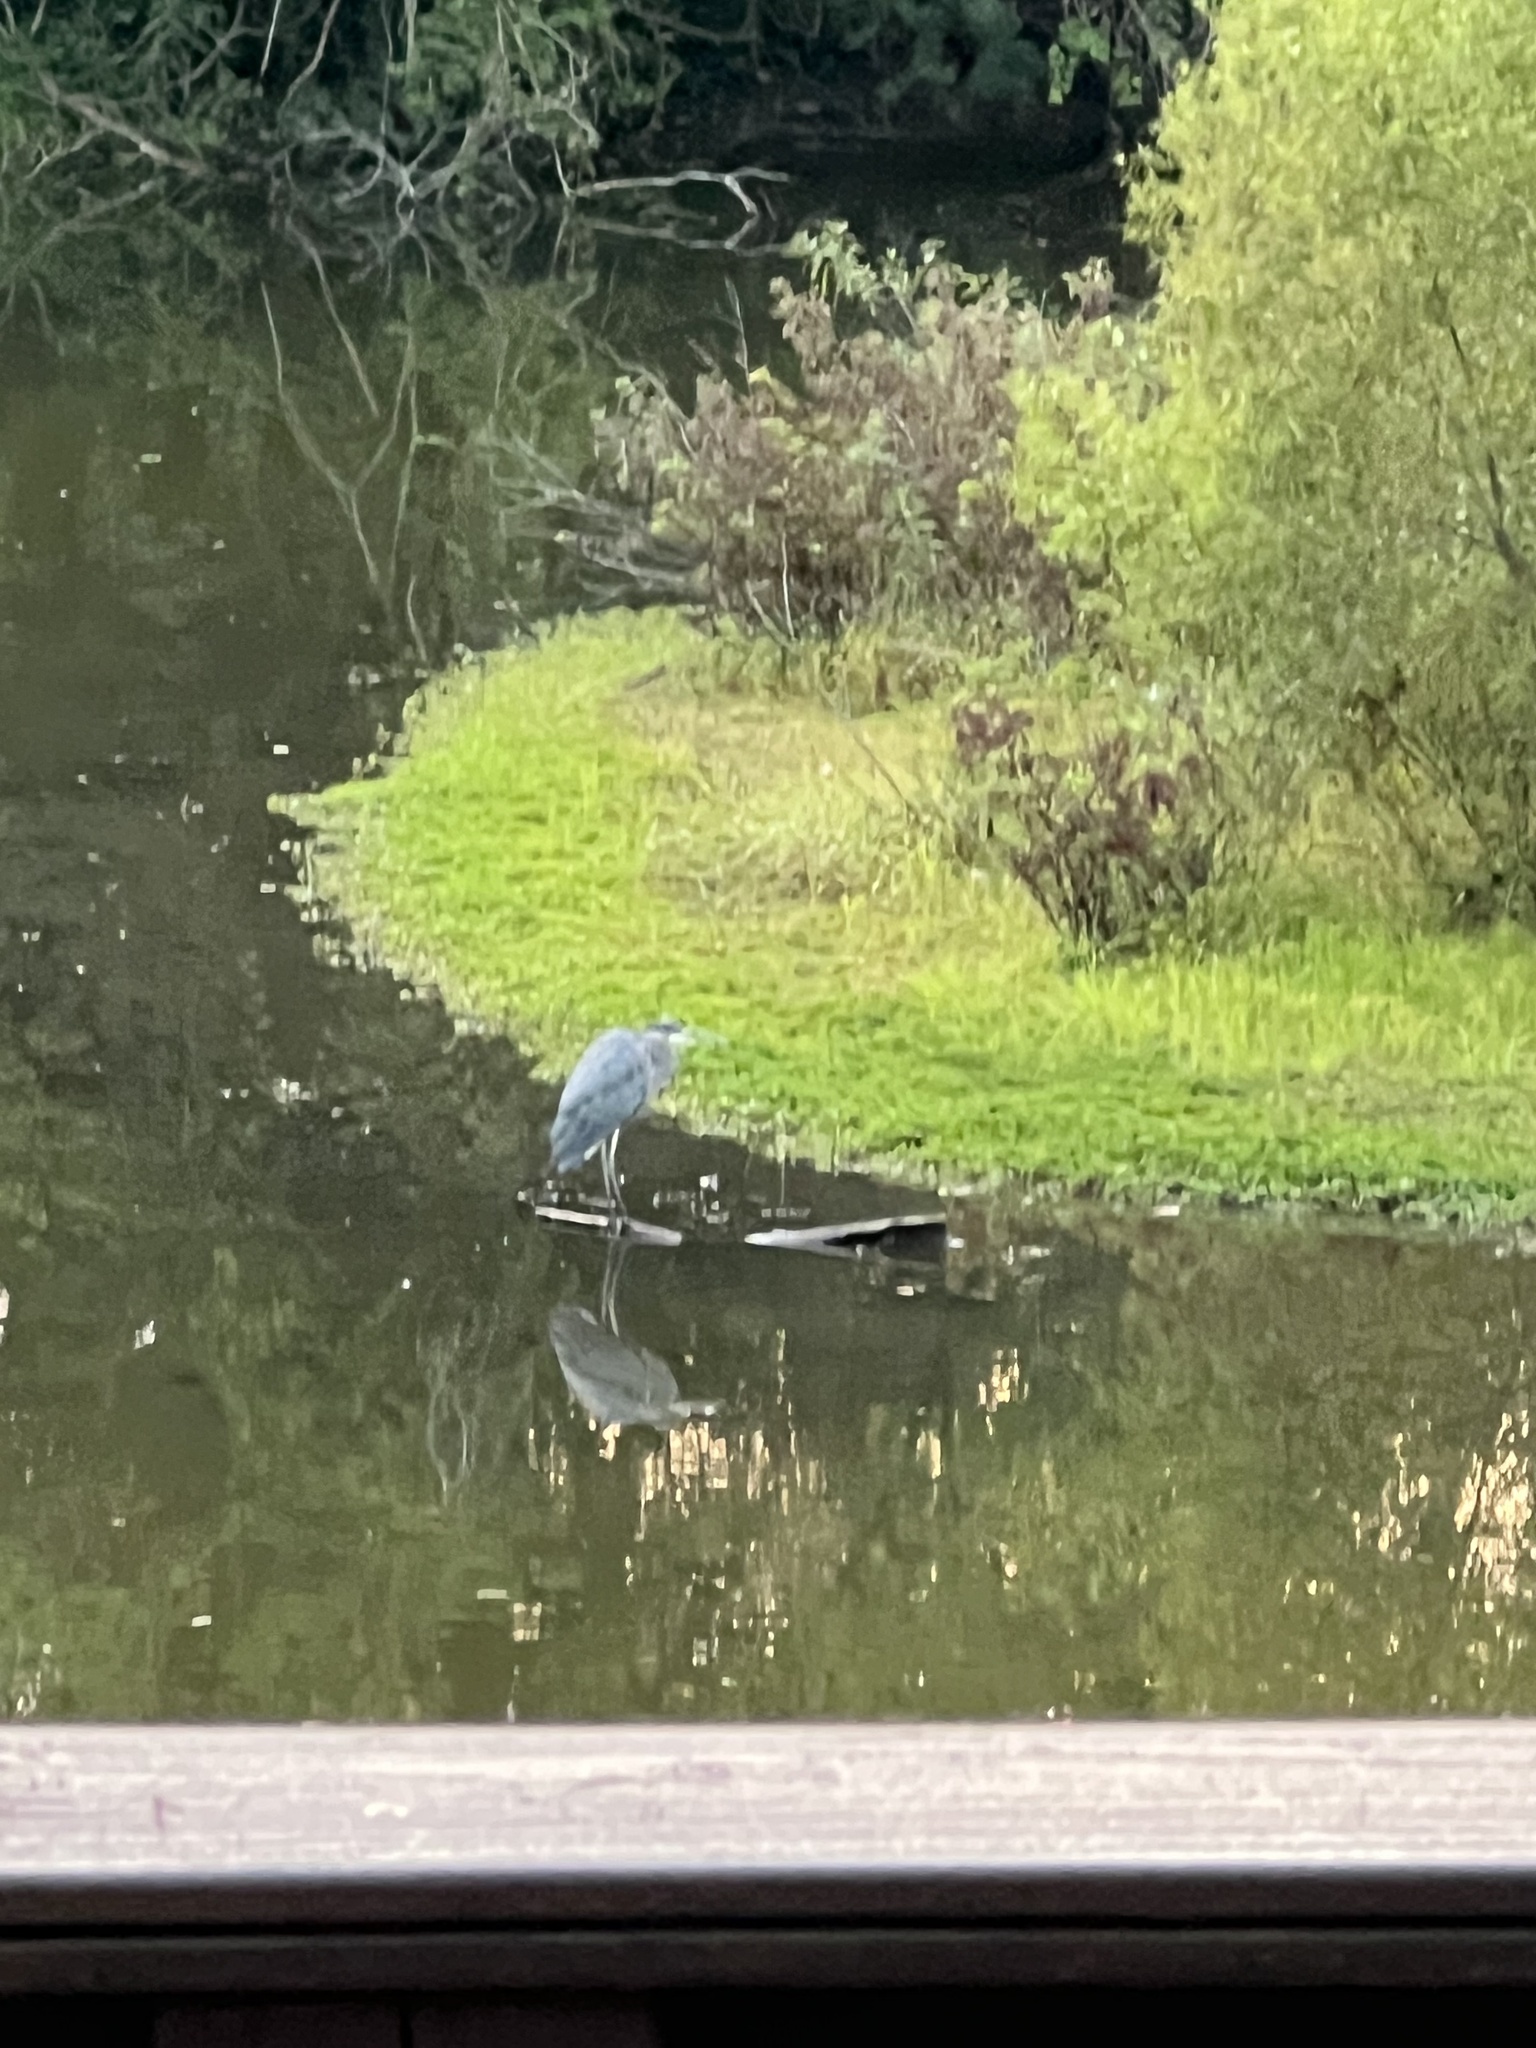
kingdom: Animalia
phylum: Chordata
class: Aves
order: Pelecaniformes
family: Ardeidae
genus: Ardea
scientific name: Ardea herodias
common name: Great blue heron
